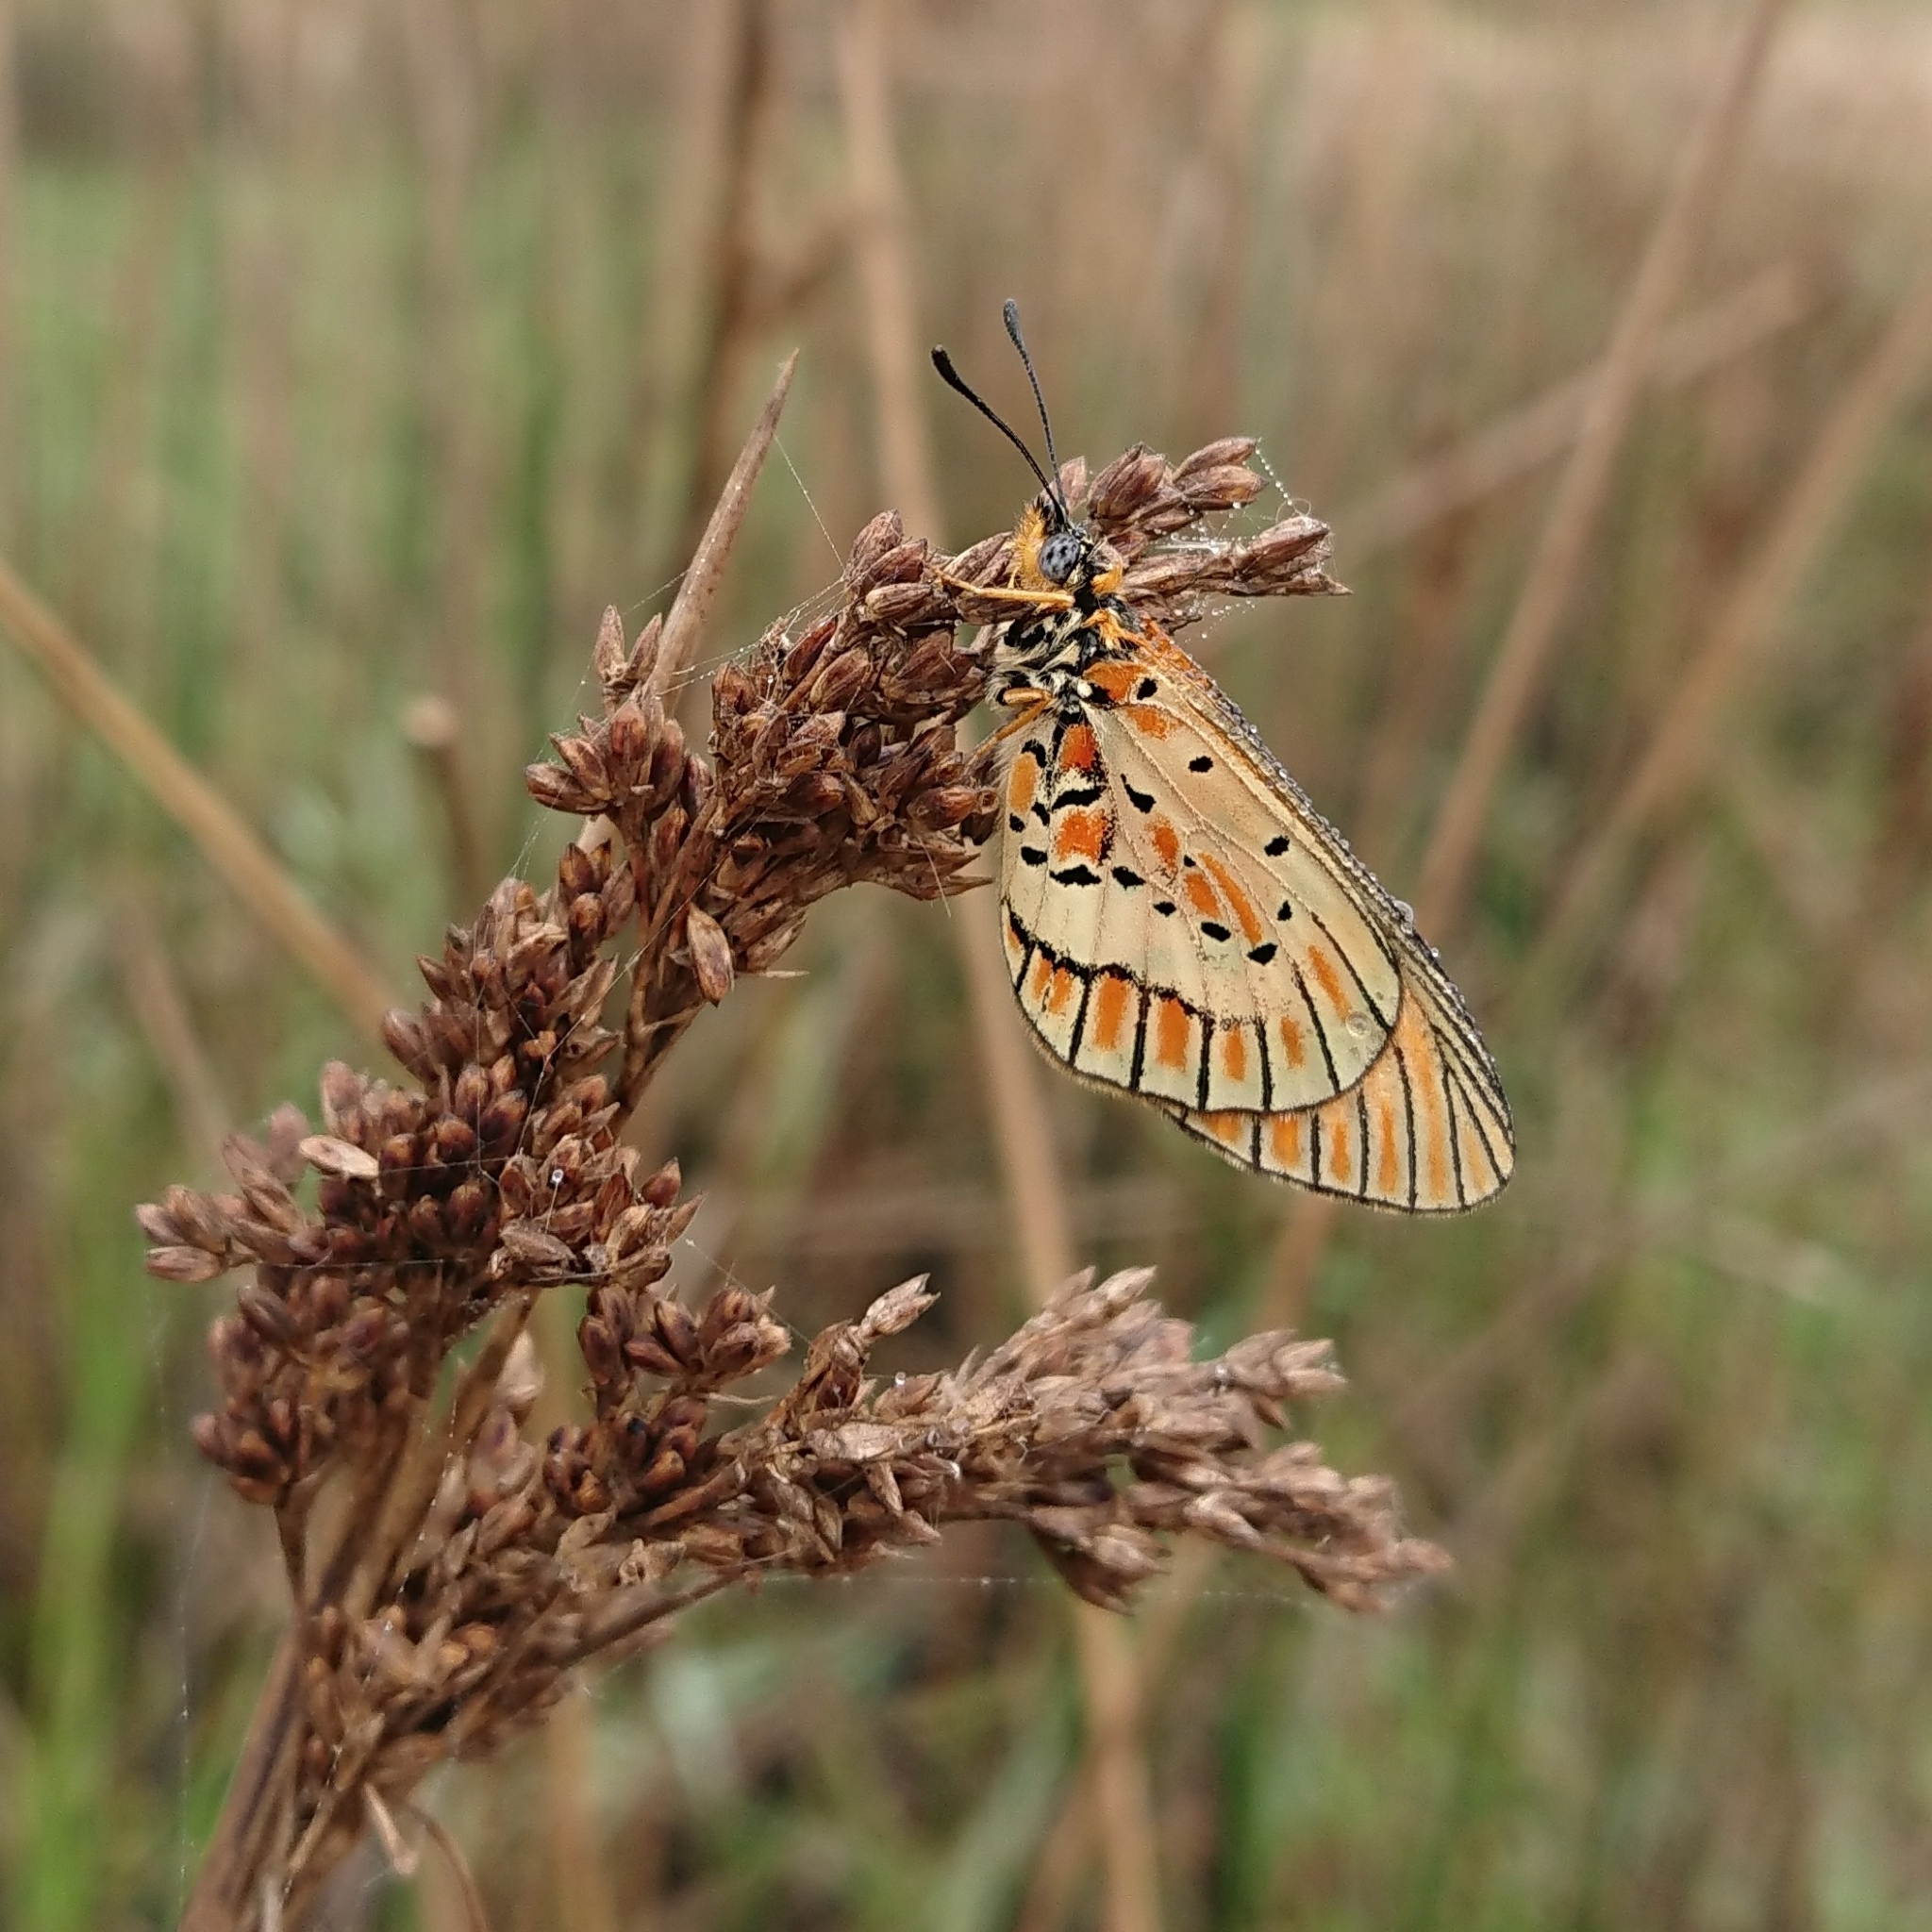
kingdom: Animalia
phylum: Arthropoda
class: Insecta
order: Lepidoptera
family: Nymphalidae
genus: Acraea
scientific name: Acraea rahira
